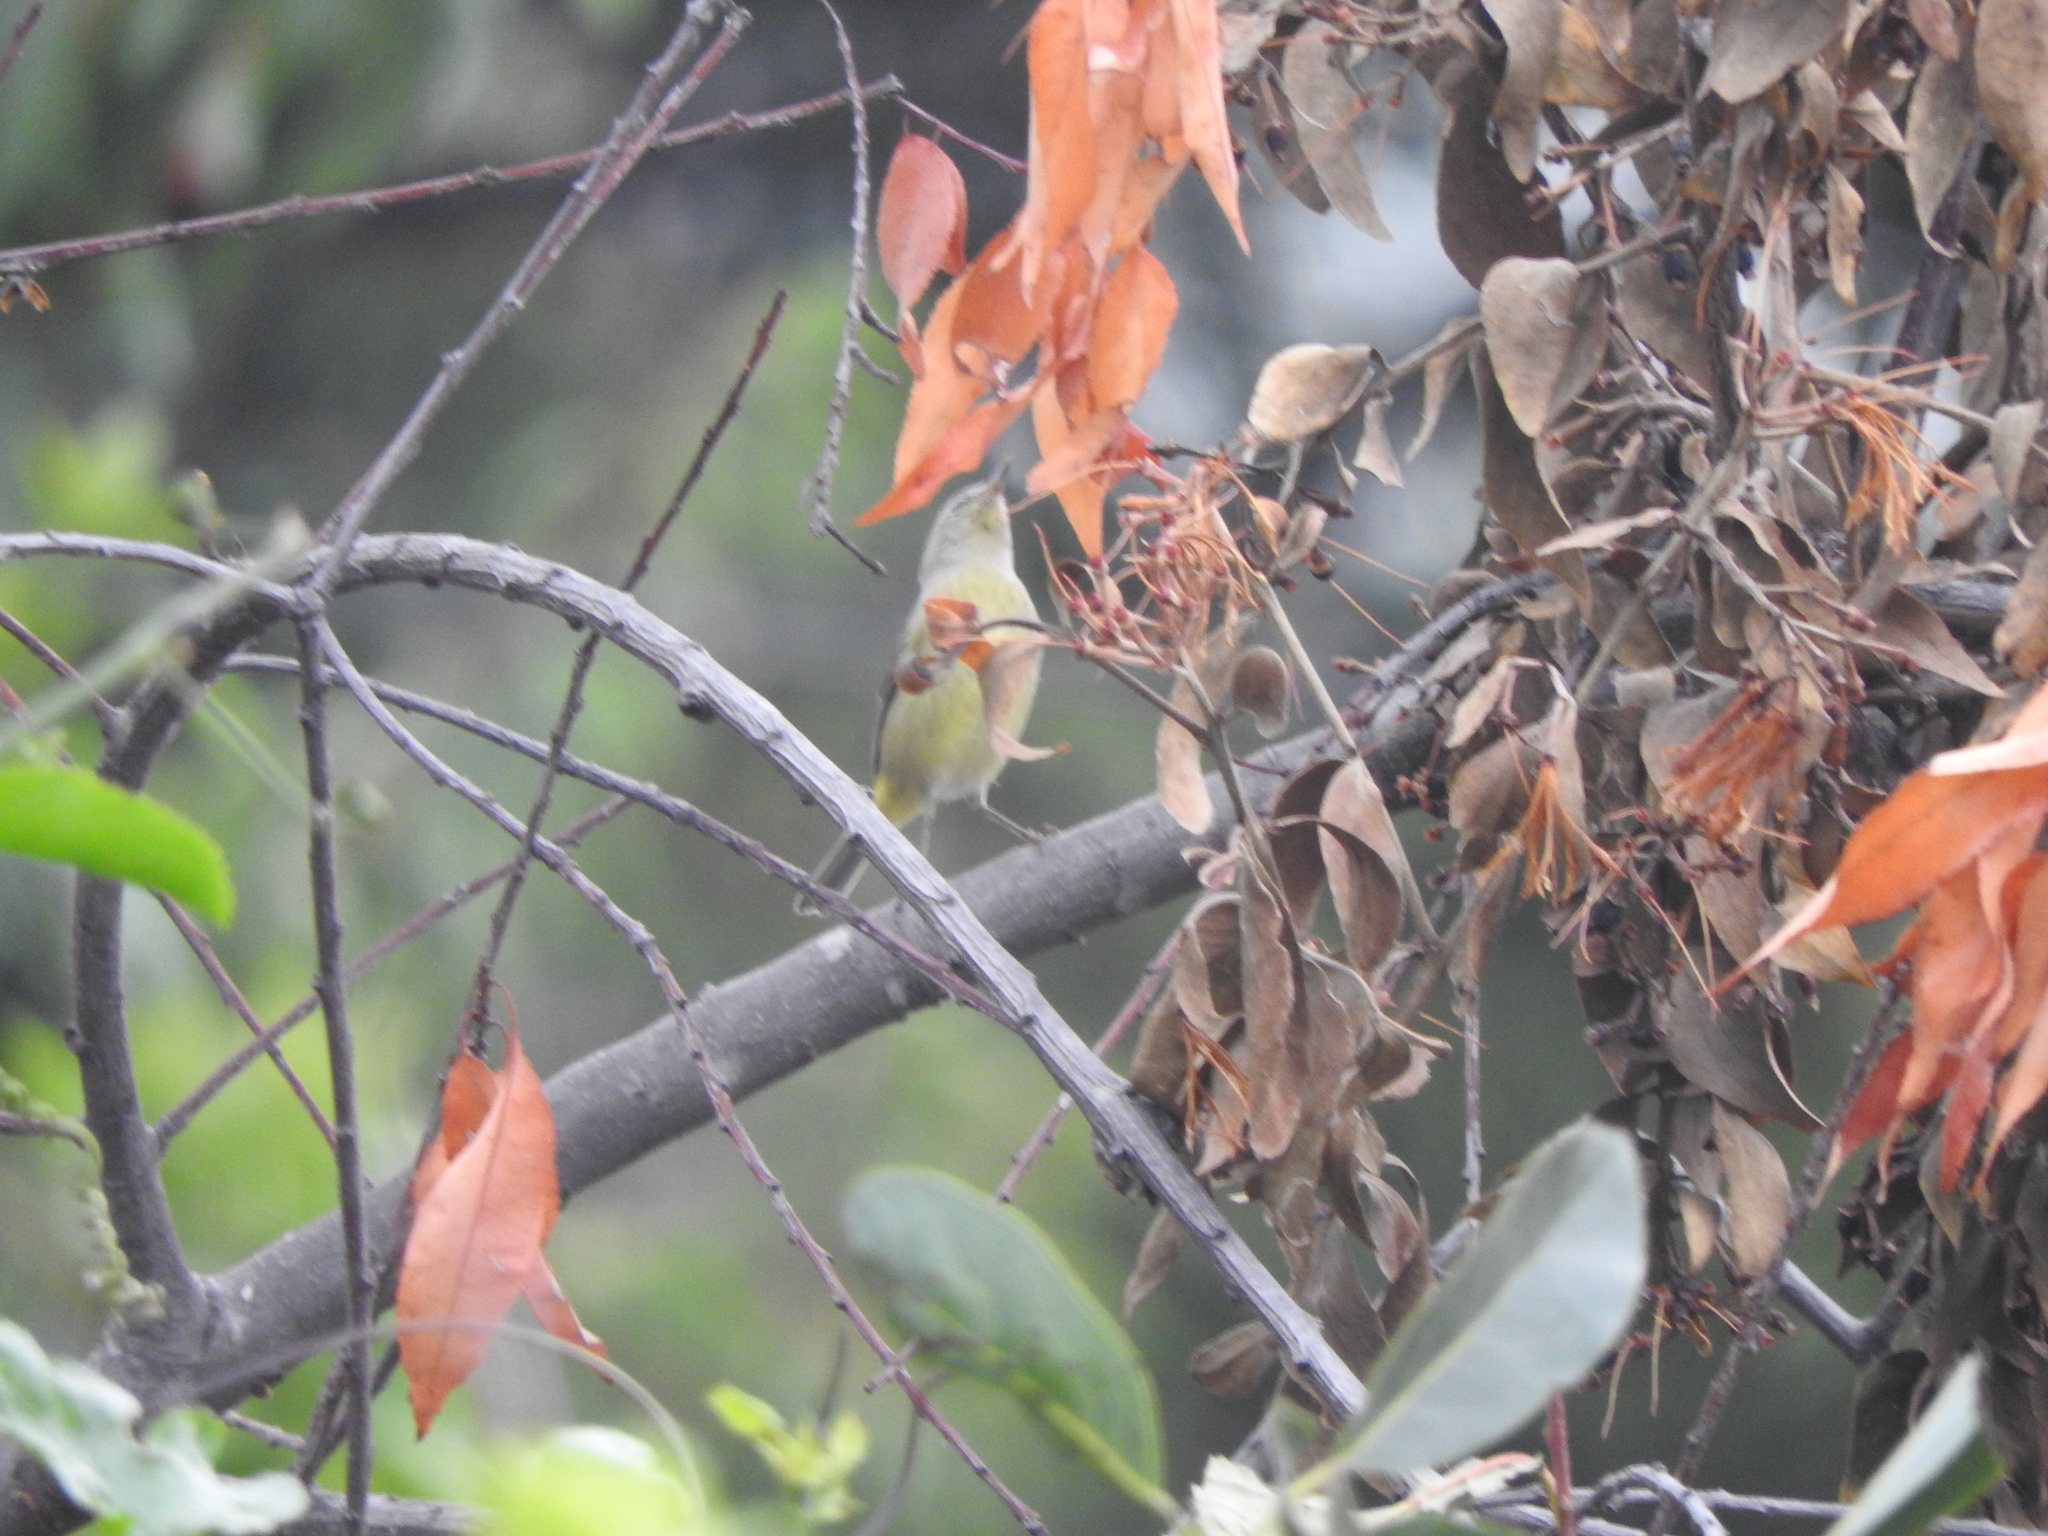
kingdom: Animalia
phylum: Chordata
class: Aves
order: Passeriformes
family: Parulidae
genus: Leiothlypis
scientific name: Leiothlypis celata
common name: Orange-crowned warbler
